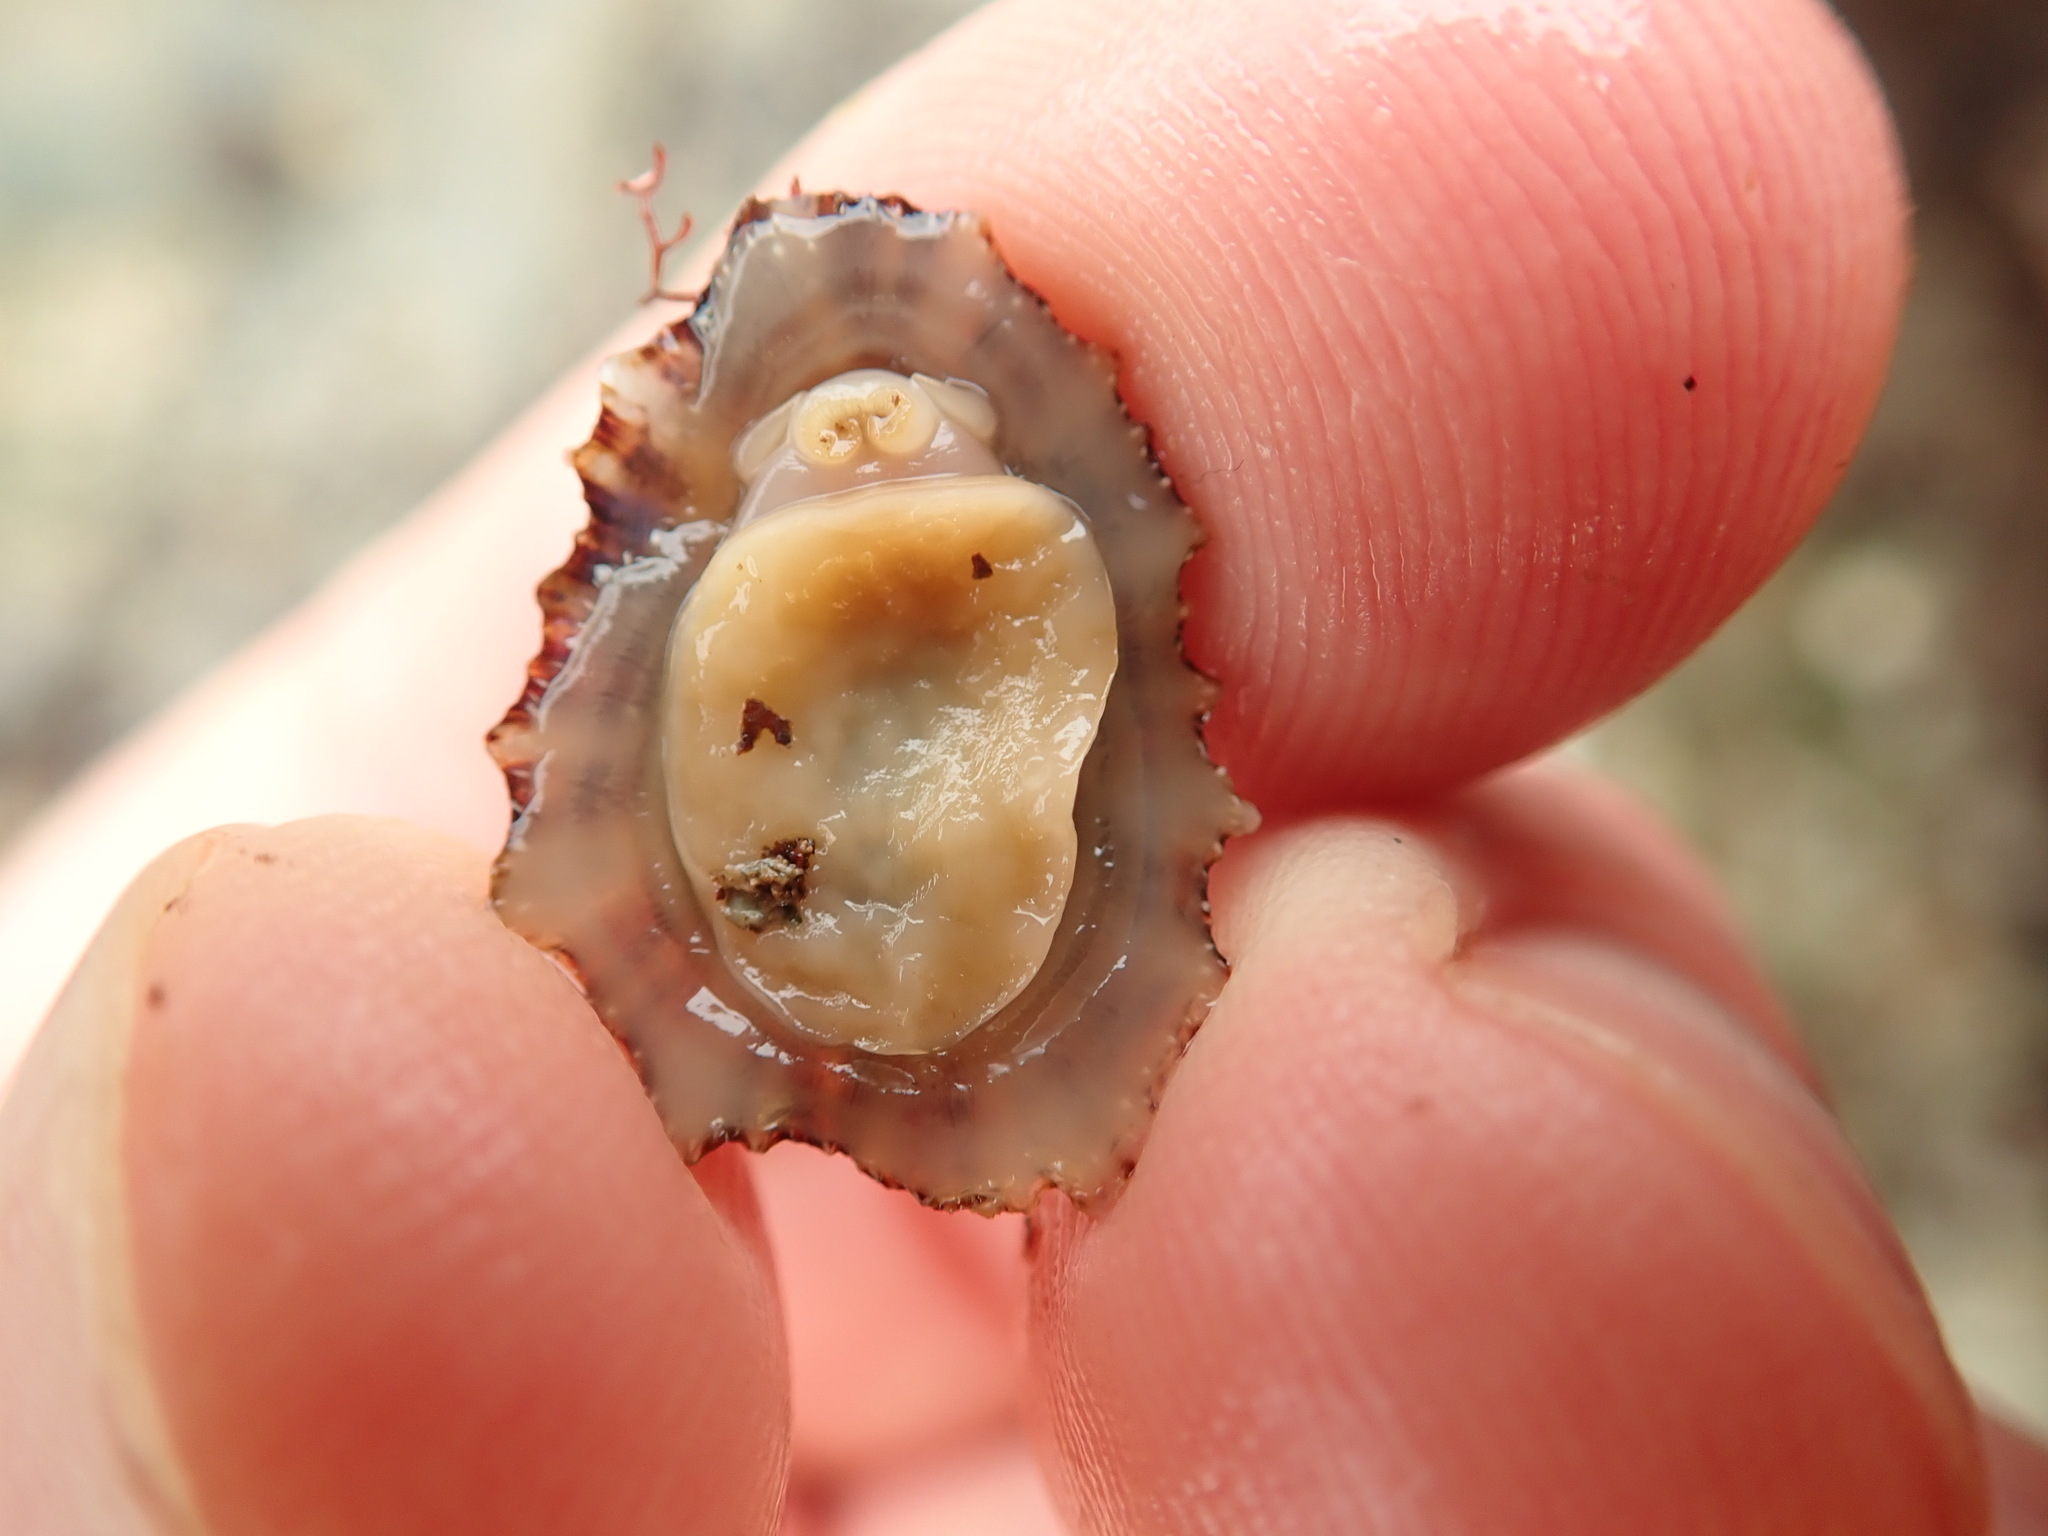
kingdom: Animalia
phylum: Mollusca
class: Gastropoda
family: Patellidae
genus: Patella
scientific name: Patella ulyssiponensis
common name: China limpet
